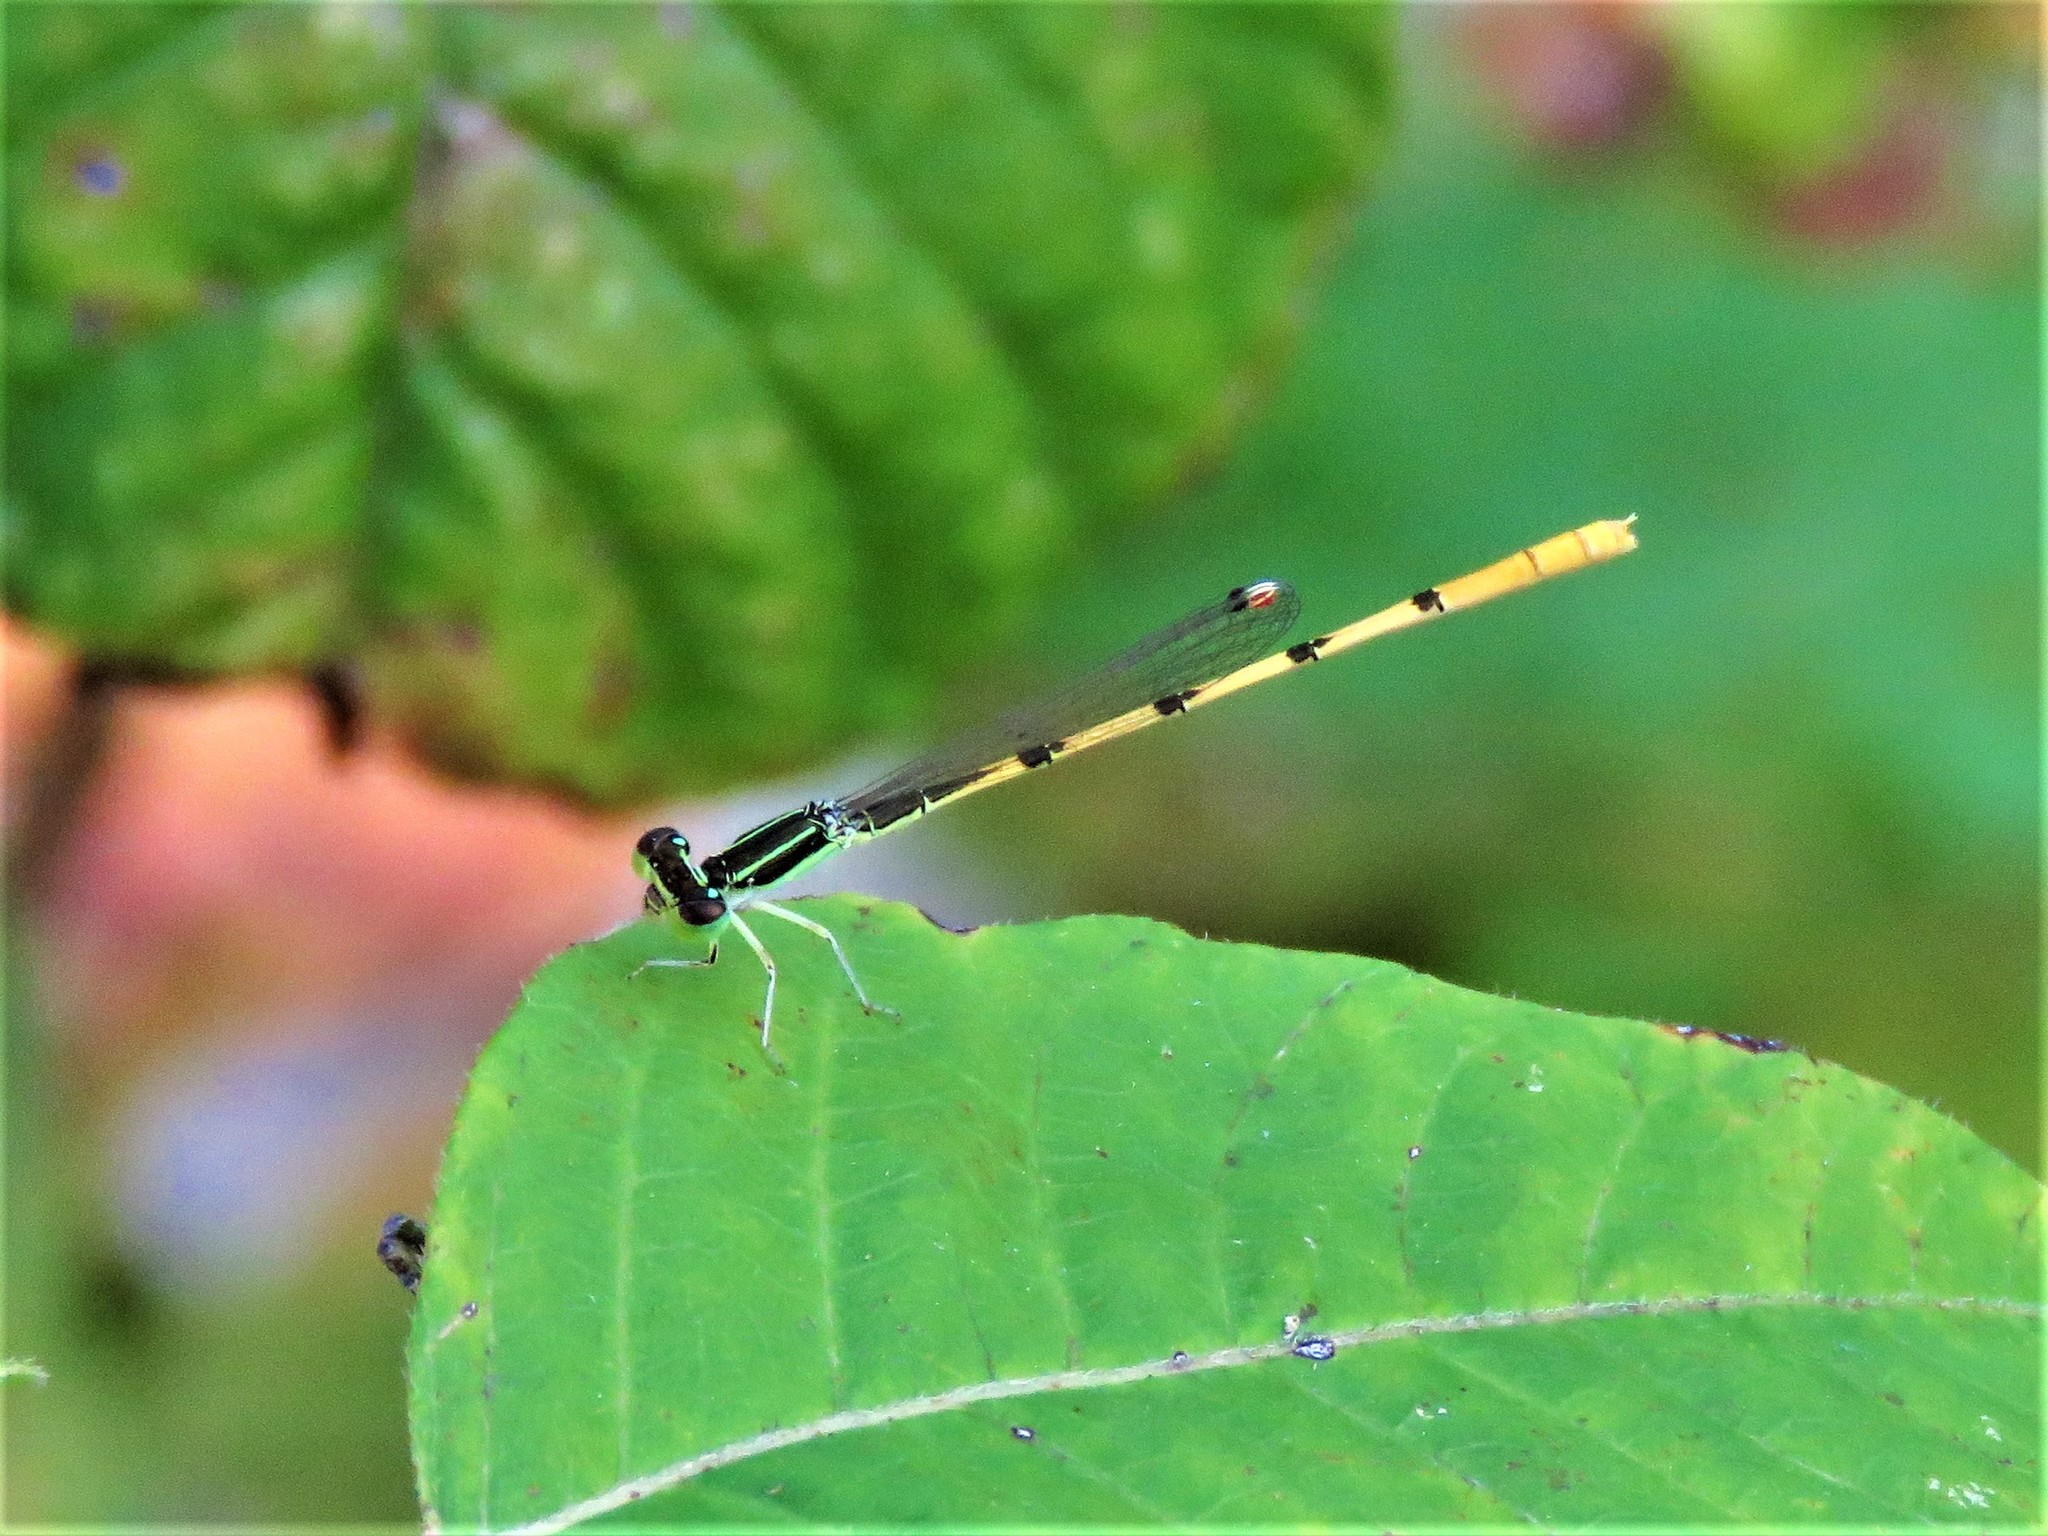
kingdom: Animalia
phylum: Arthropoda
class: Insecta
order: Odonata
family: Coenagrionidae
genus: Ischnura
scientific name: Ischnura hastata
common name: Citrine forktail
